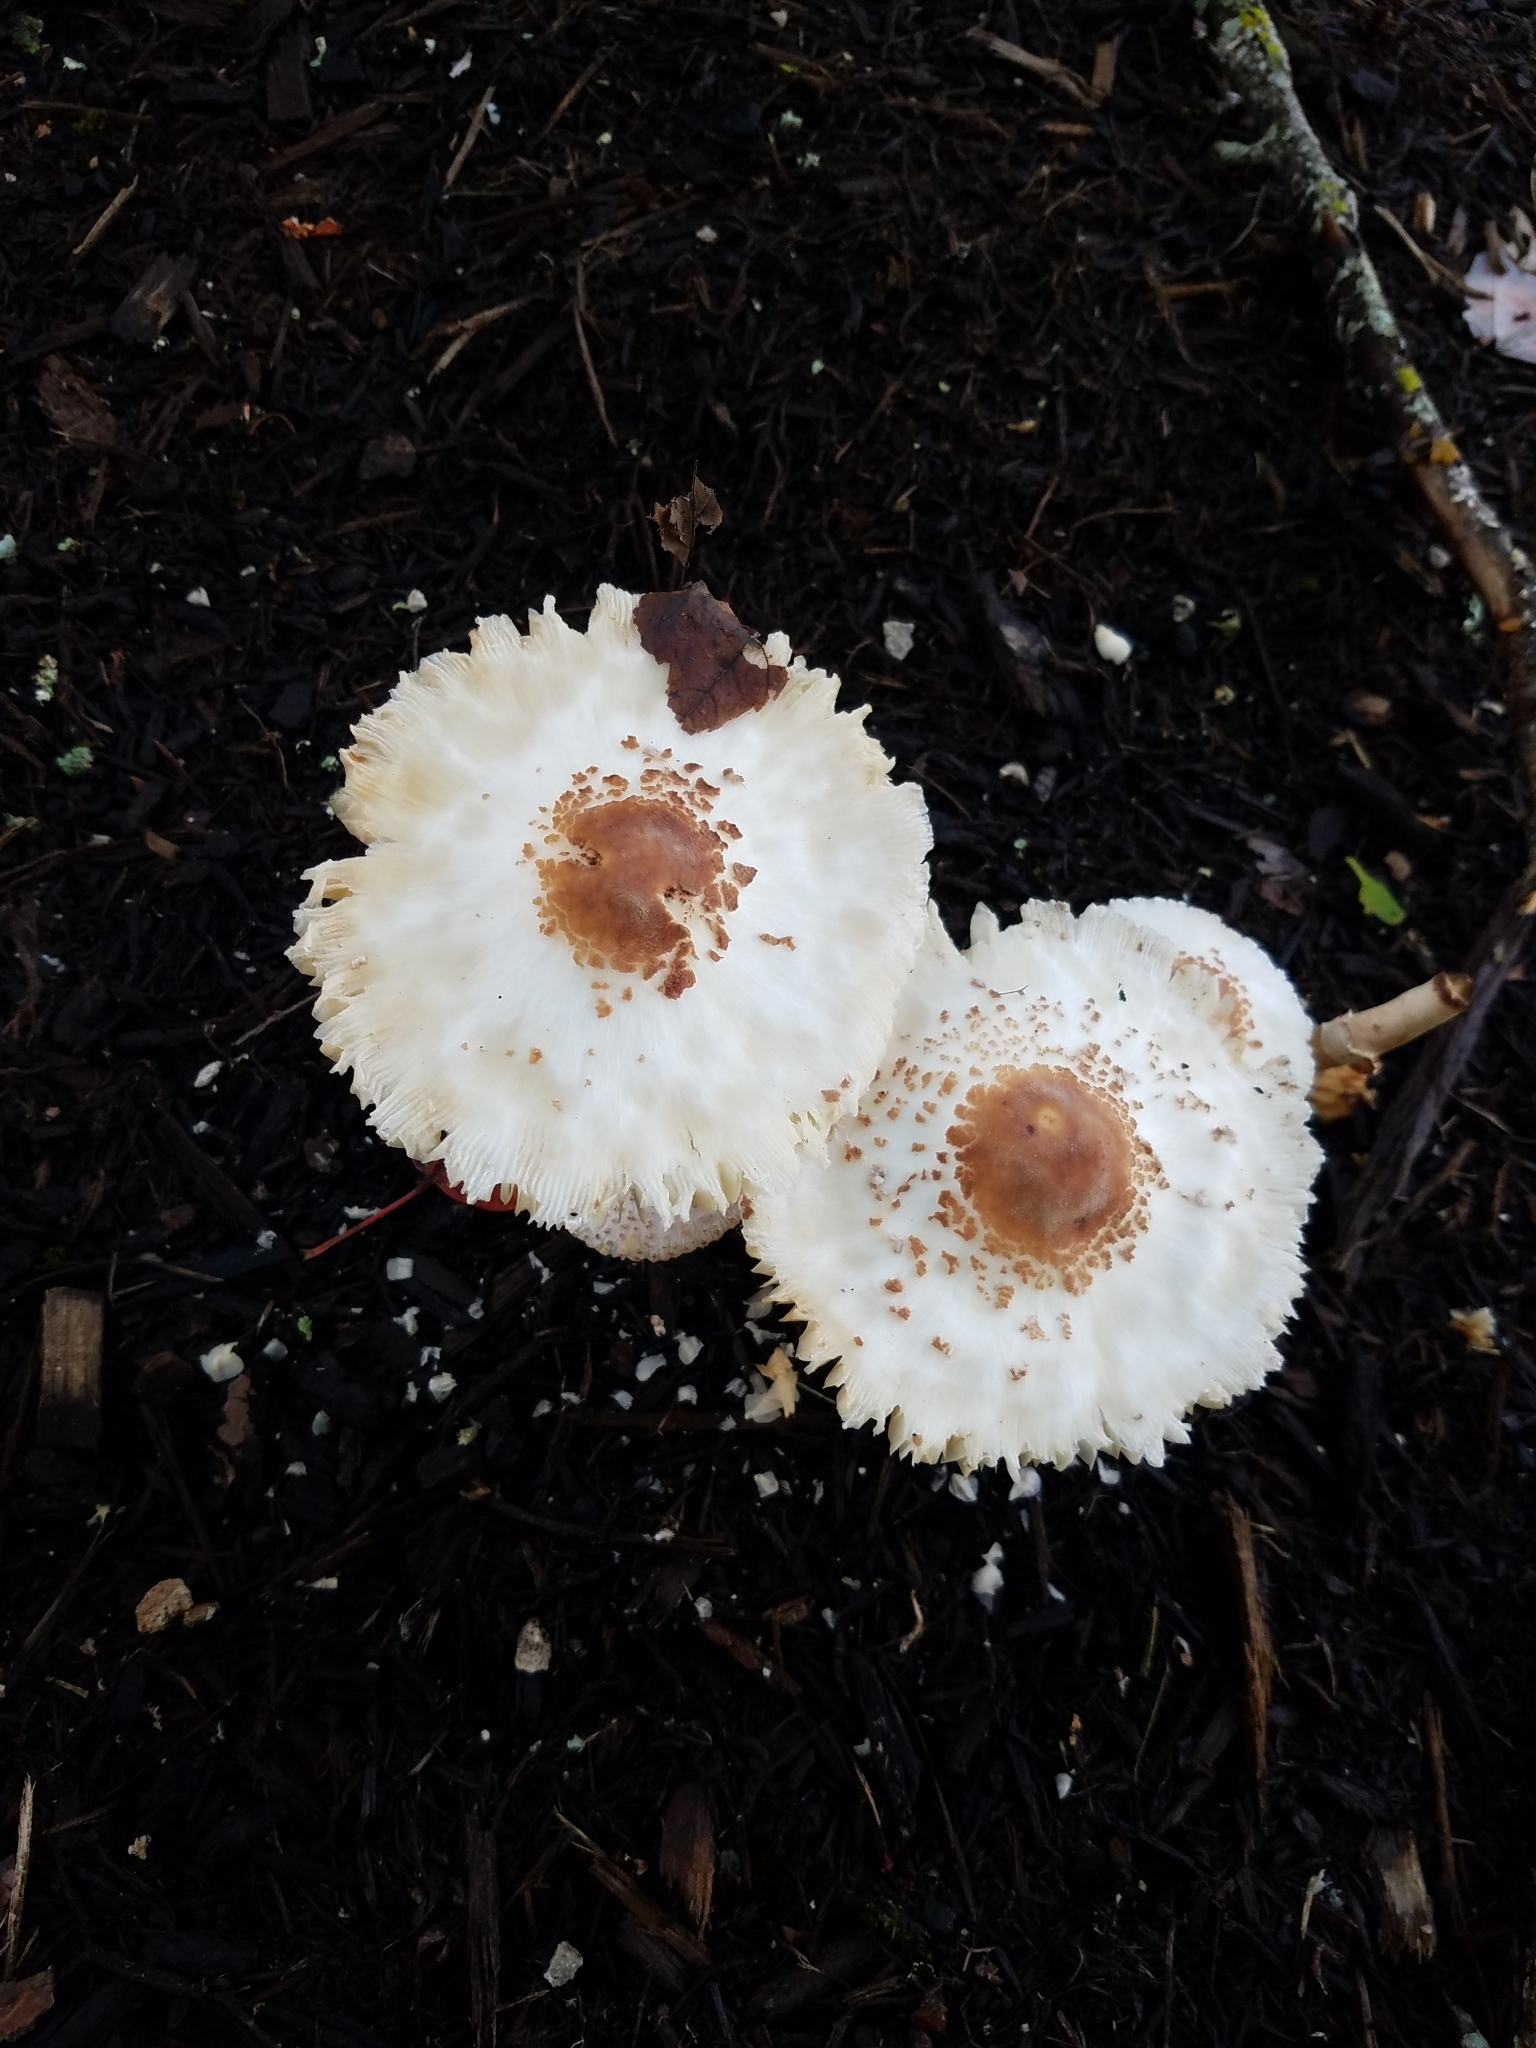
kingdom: Fungi
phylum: Basidiomycota
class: Agaricomycetes
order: Agaricales
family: Agaricaceae
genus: Lepiota
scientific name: Lepiota cristata
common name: Stinking dapperling
